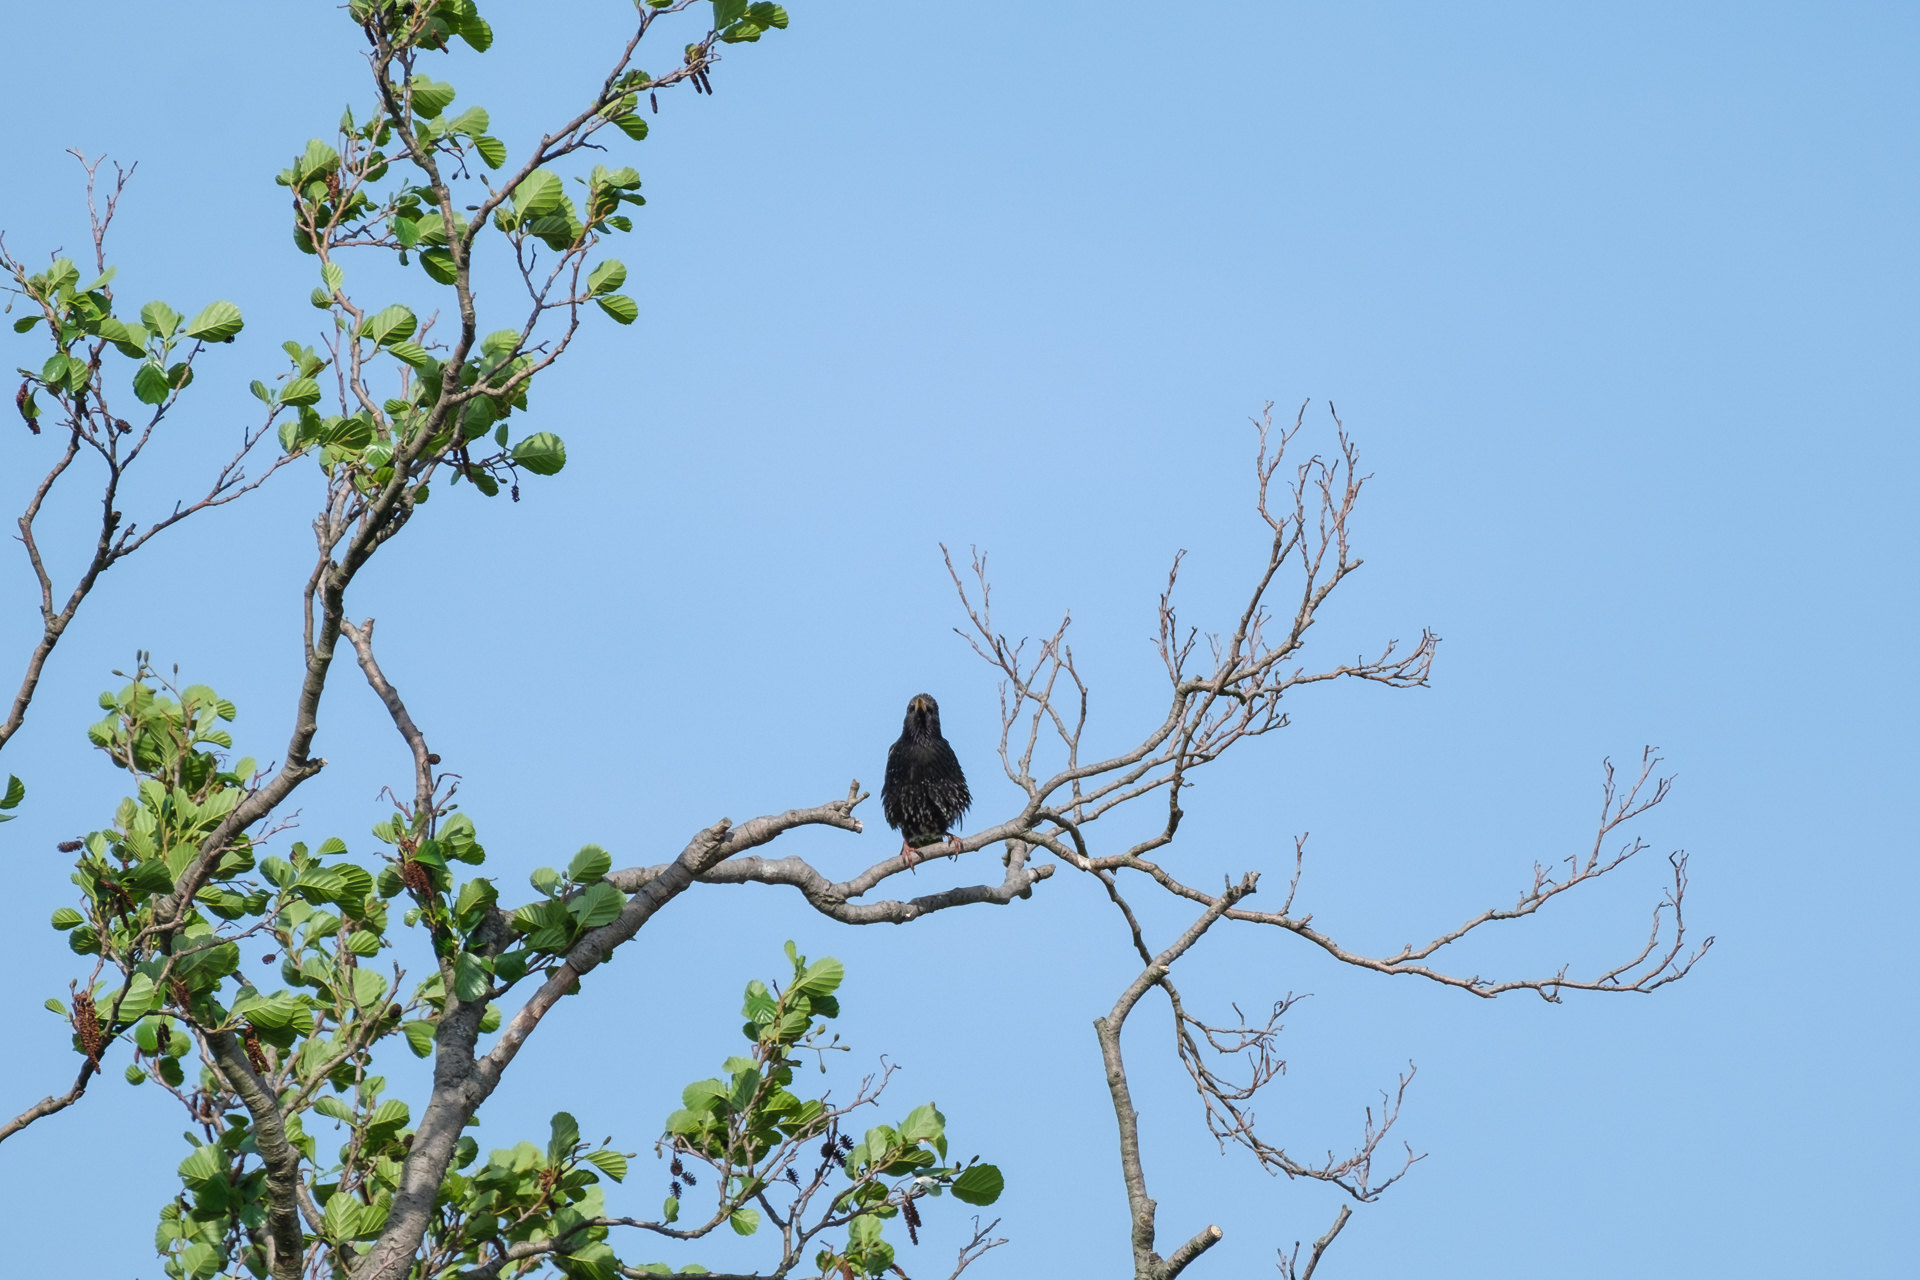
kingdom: Animalia
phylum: Chordata
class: Aves
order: Passeriformes
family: Sturnidae
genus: Sturnus
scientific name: Sturnus vulgaris
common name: Common starling
